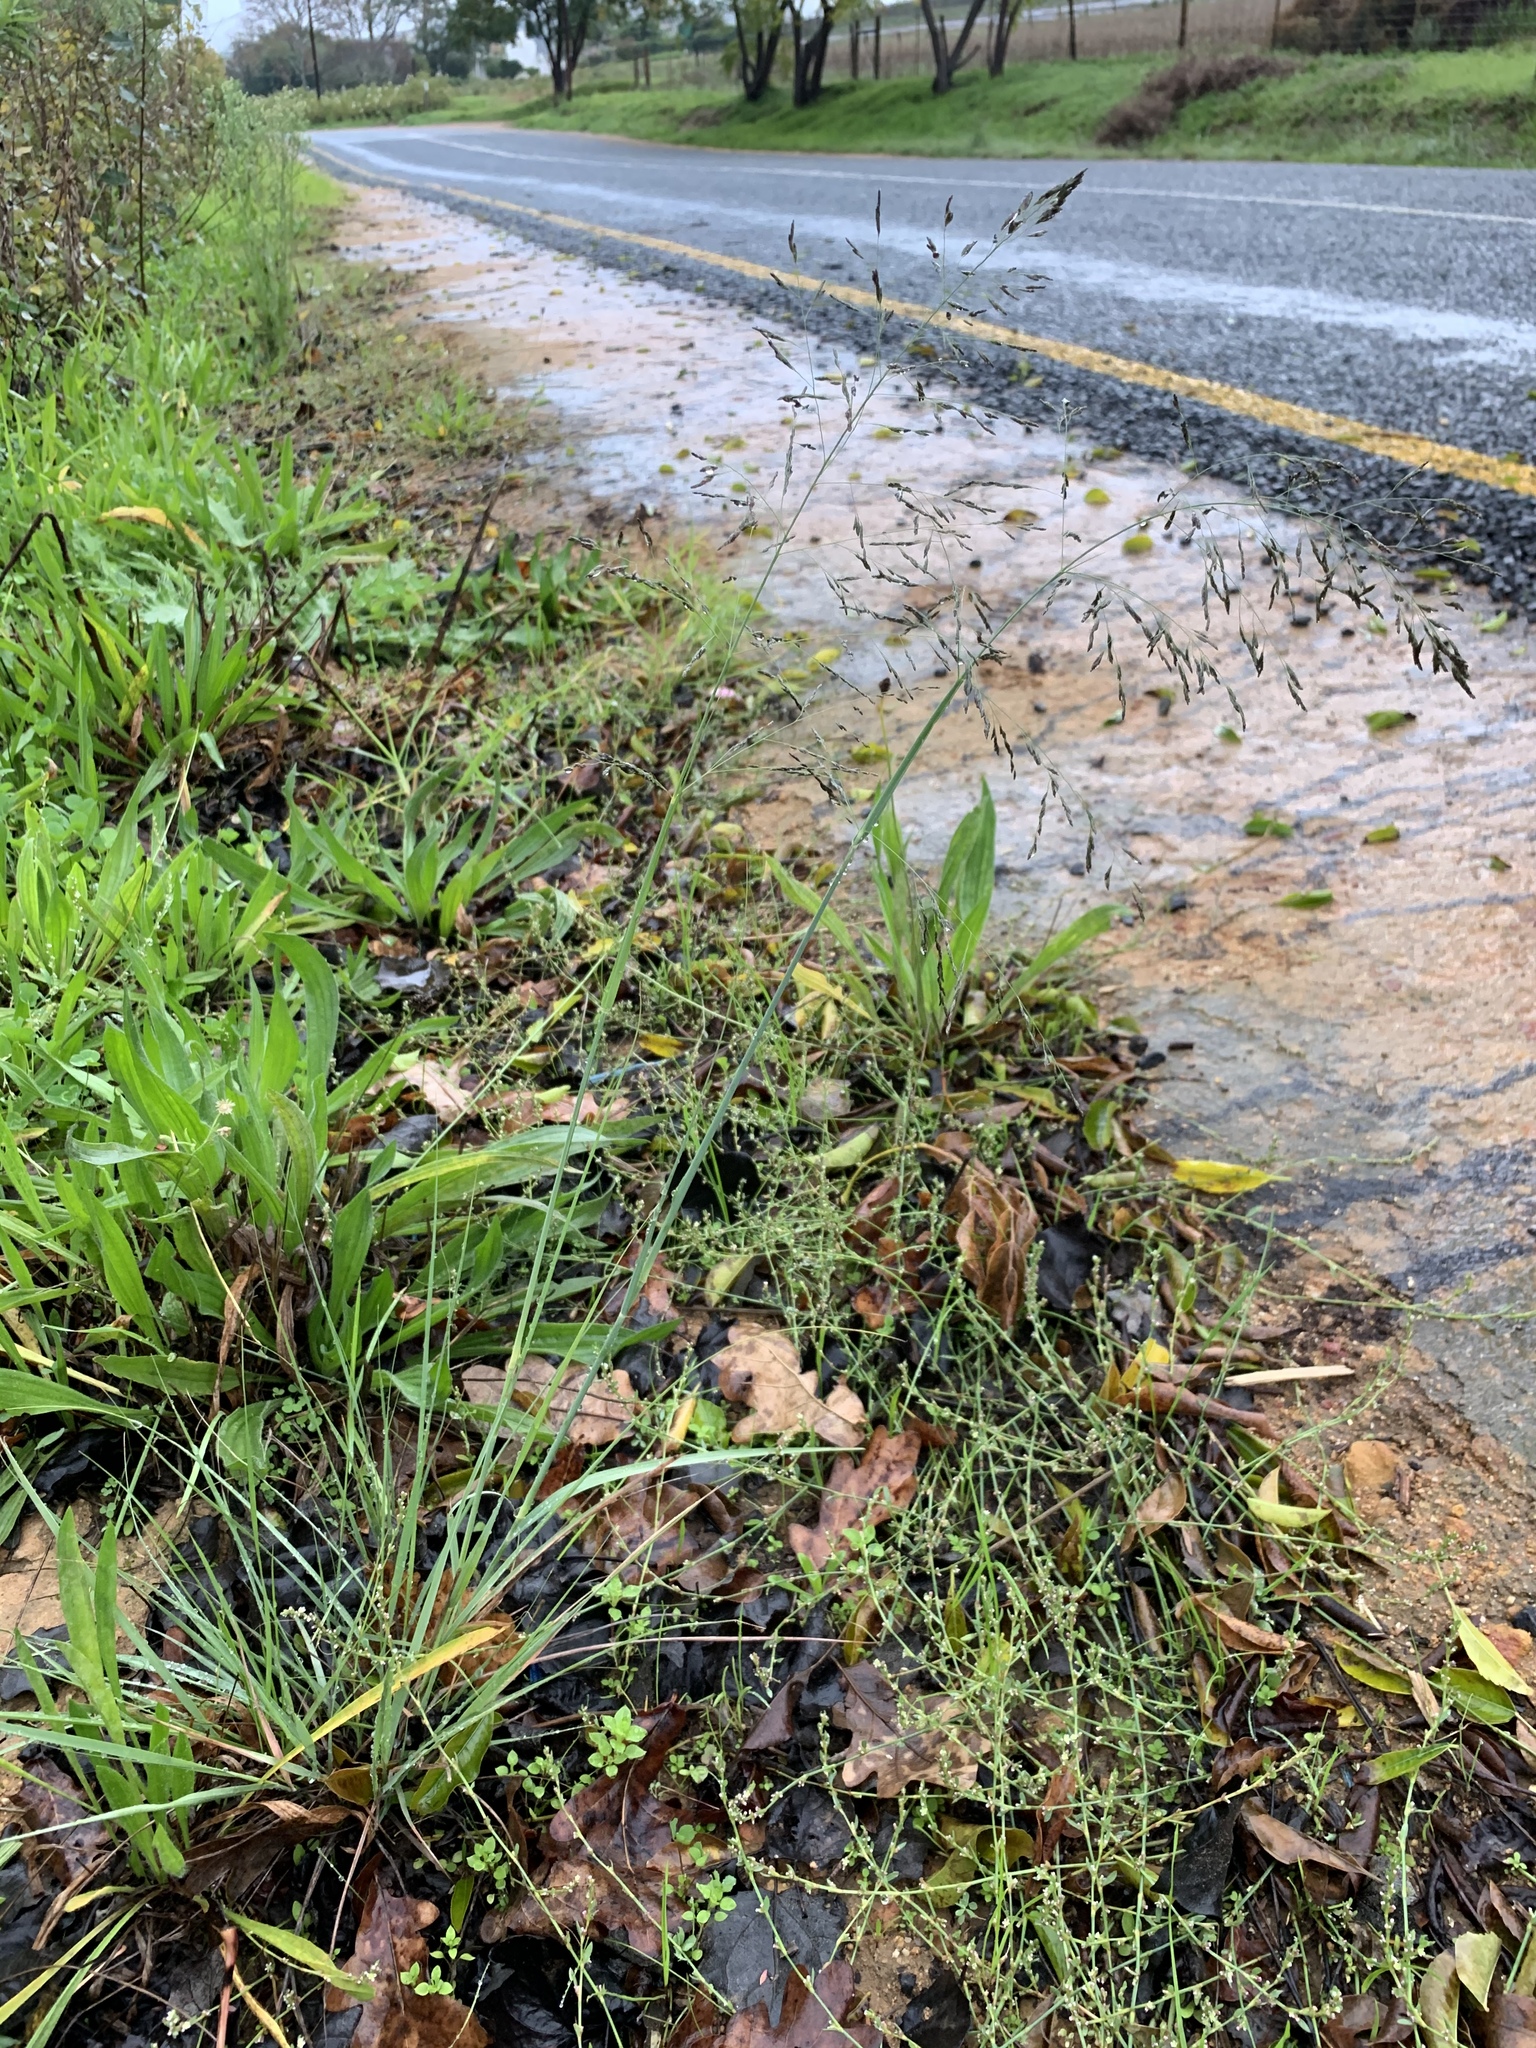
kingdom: Plantae
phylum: Tracheophyta
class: Liliopsida
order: Poales
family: Poaceae
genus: Eragrostis
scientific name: Eragrostis curvula
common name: African love-grass
